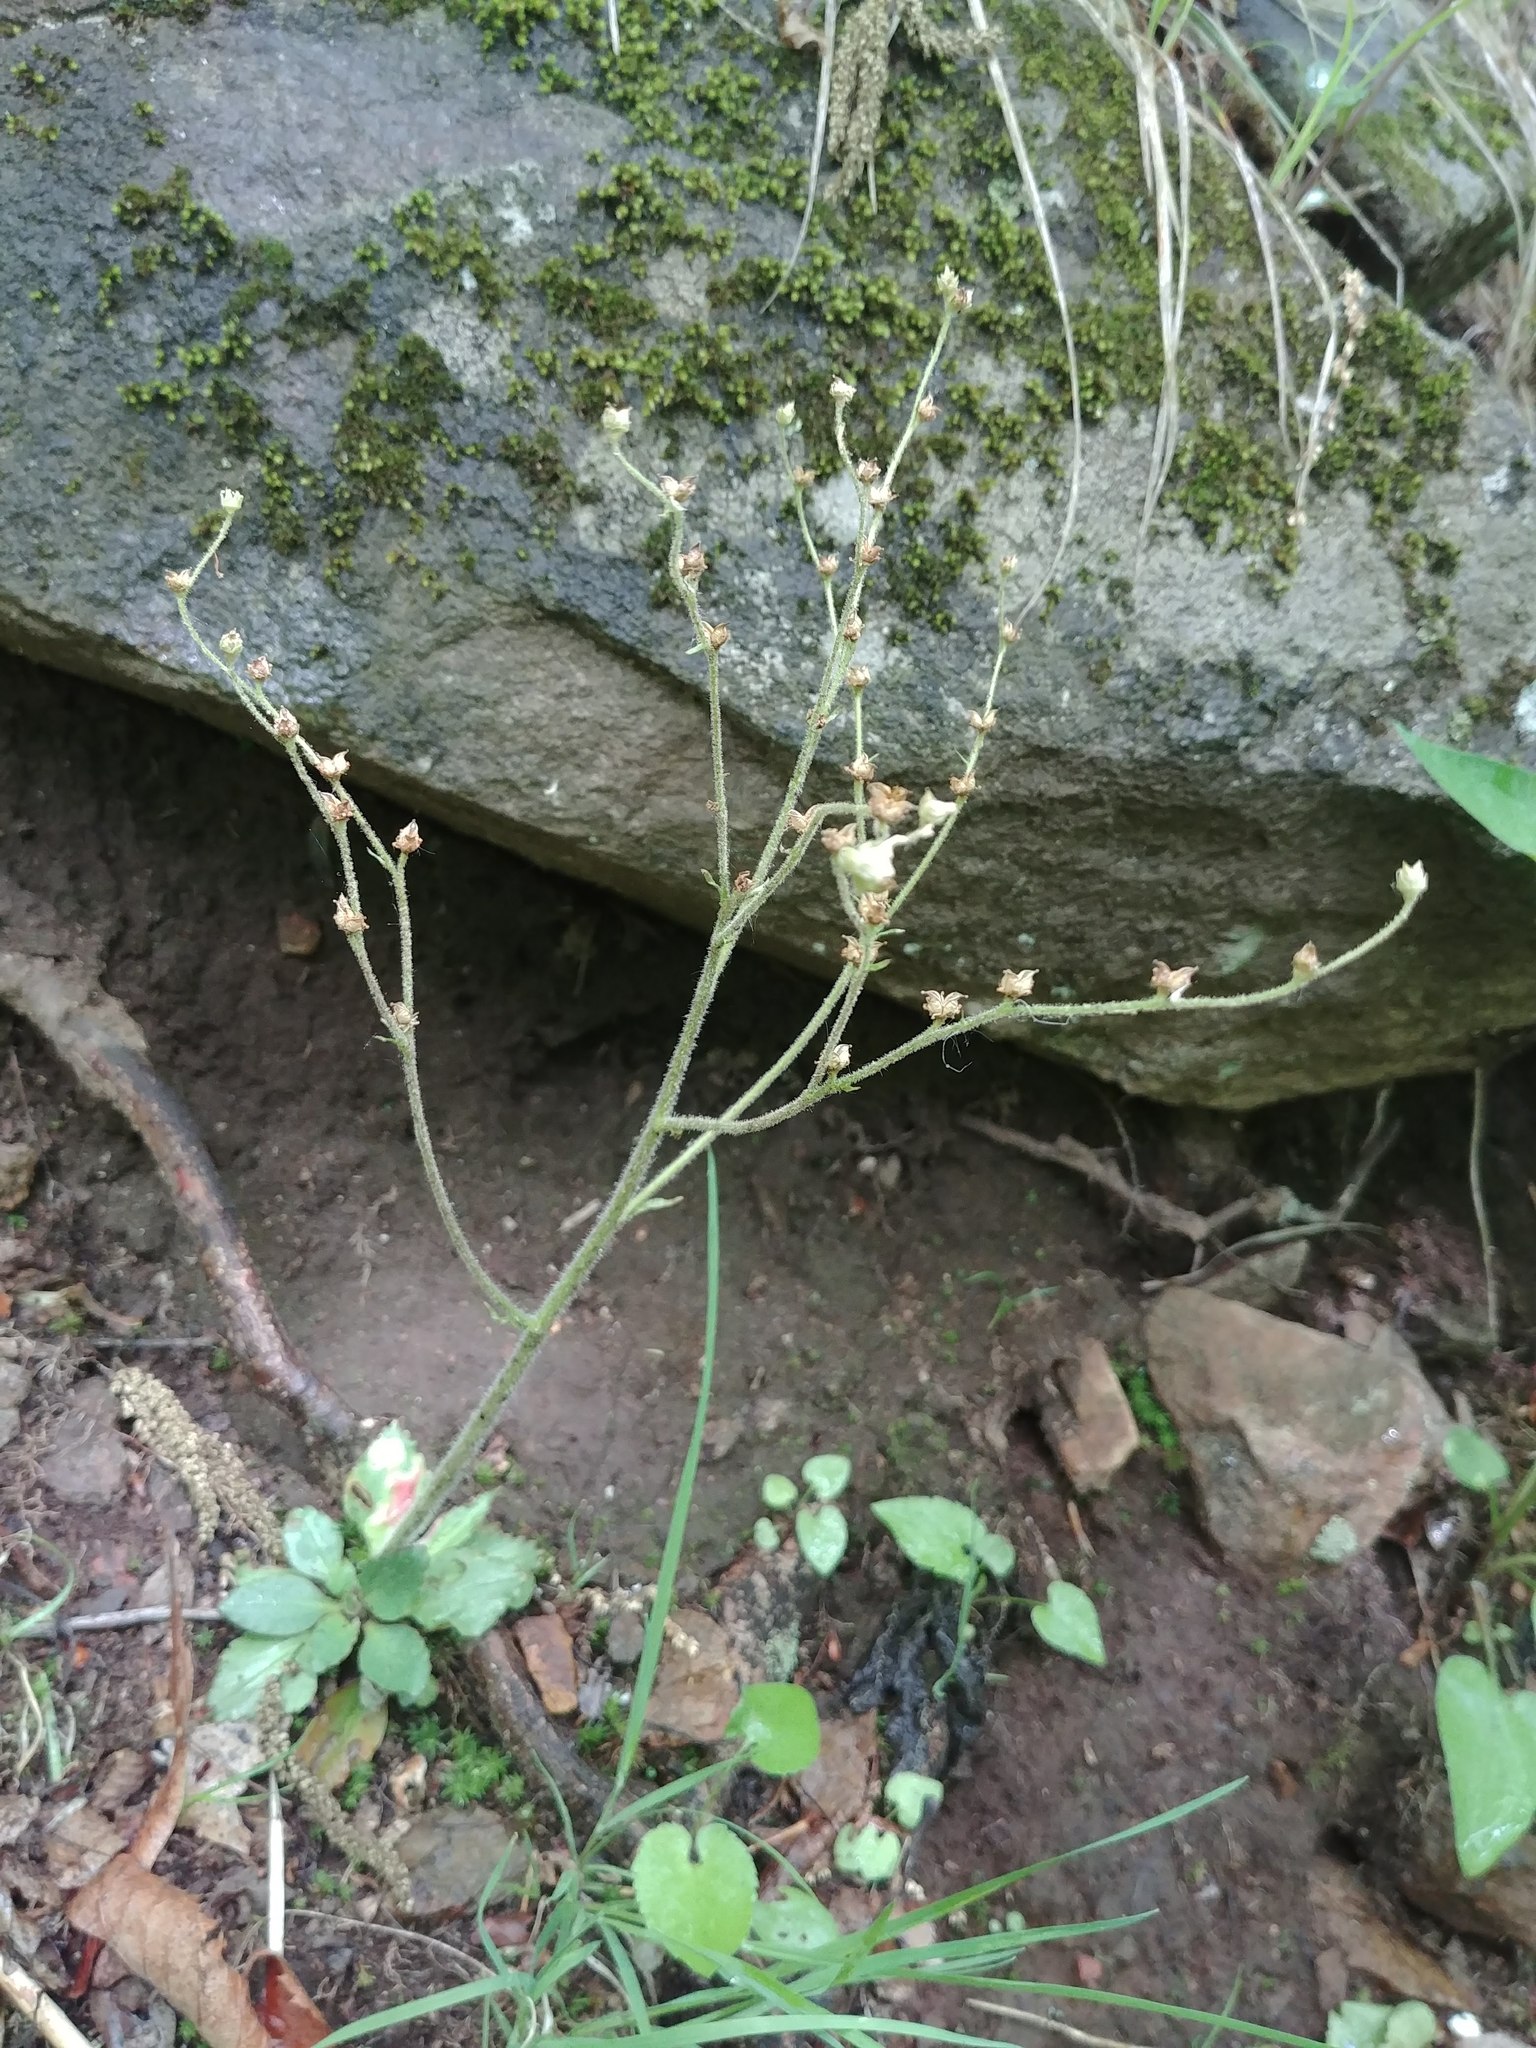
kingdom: Plantae
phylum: Tracheophyta
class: Magnoliopsida
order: Saxifragales
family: Saxifragaceae
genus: Micranthes
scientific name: Micranthes virginiensis
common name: Early saxifrage
